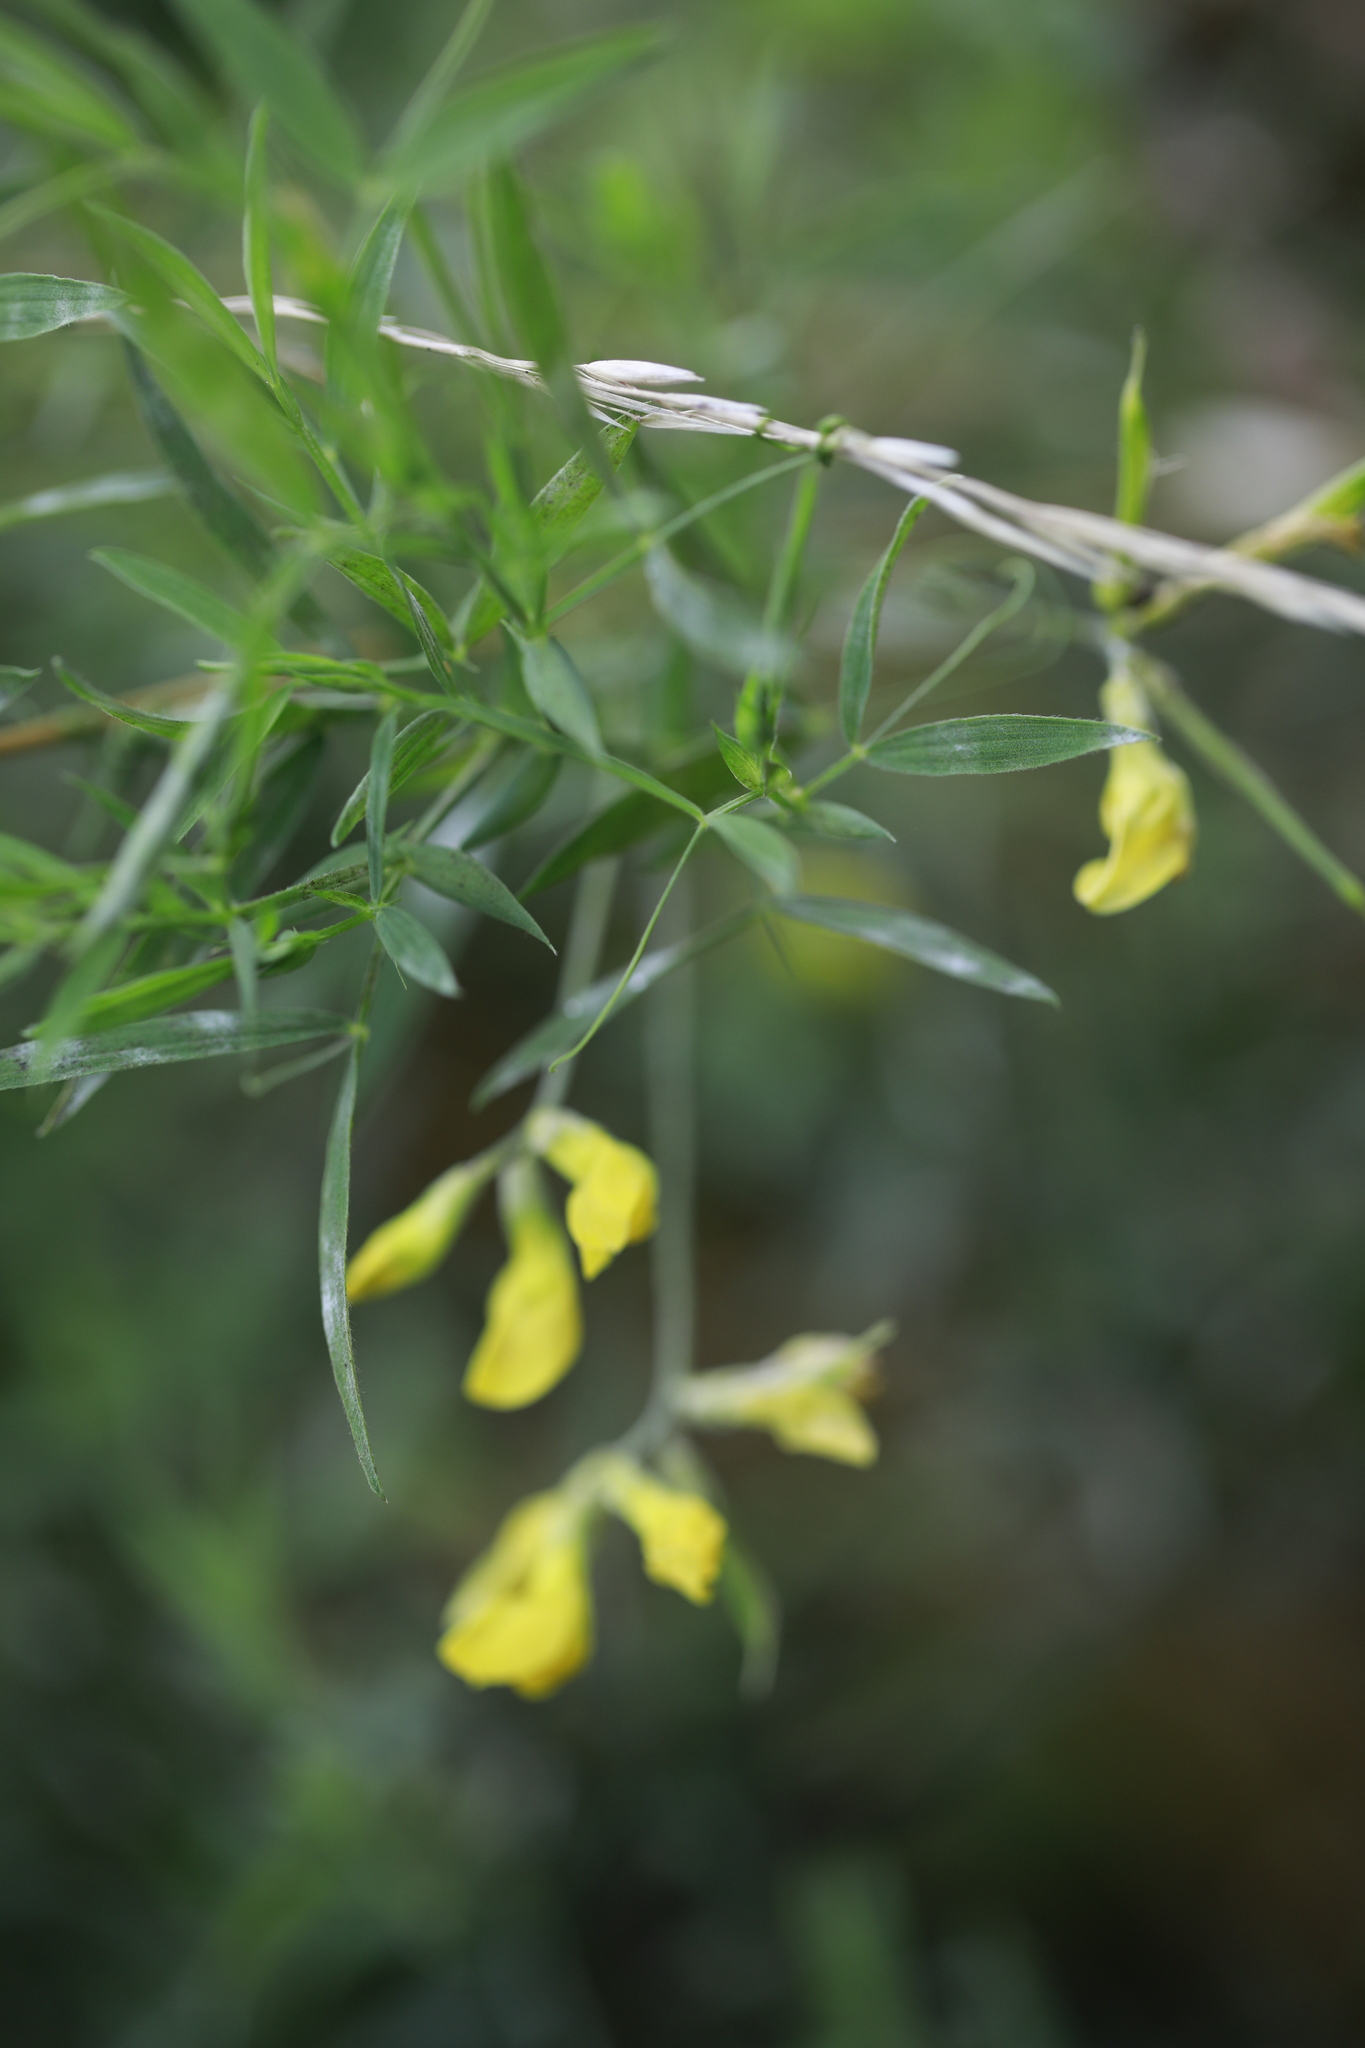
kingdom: Plantae
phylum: Tracheophyta
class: Magnoliopsida
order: Fabales
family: Fabaceae
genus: Lathyrus
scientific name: Lathyrus pratensis
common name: Meadow vetchling
